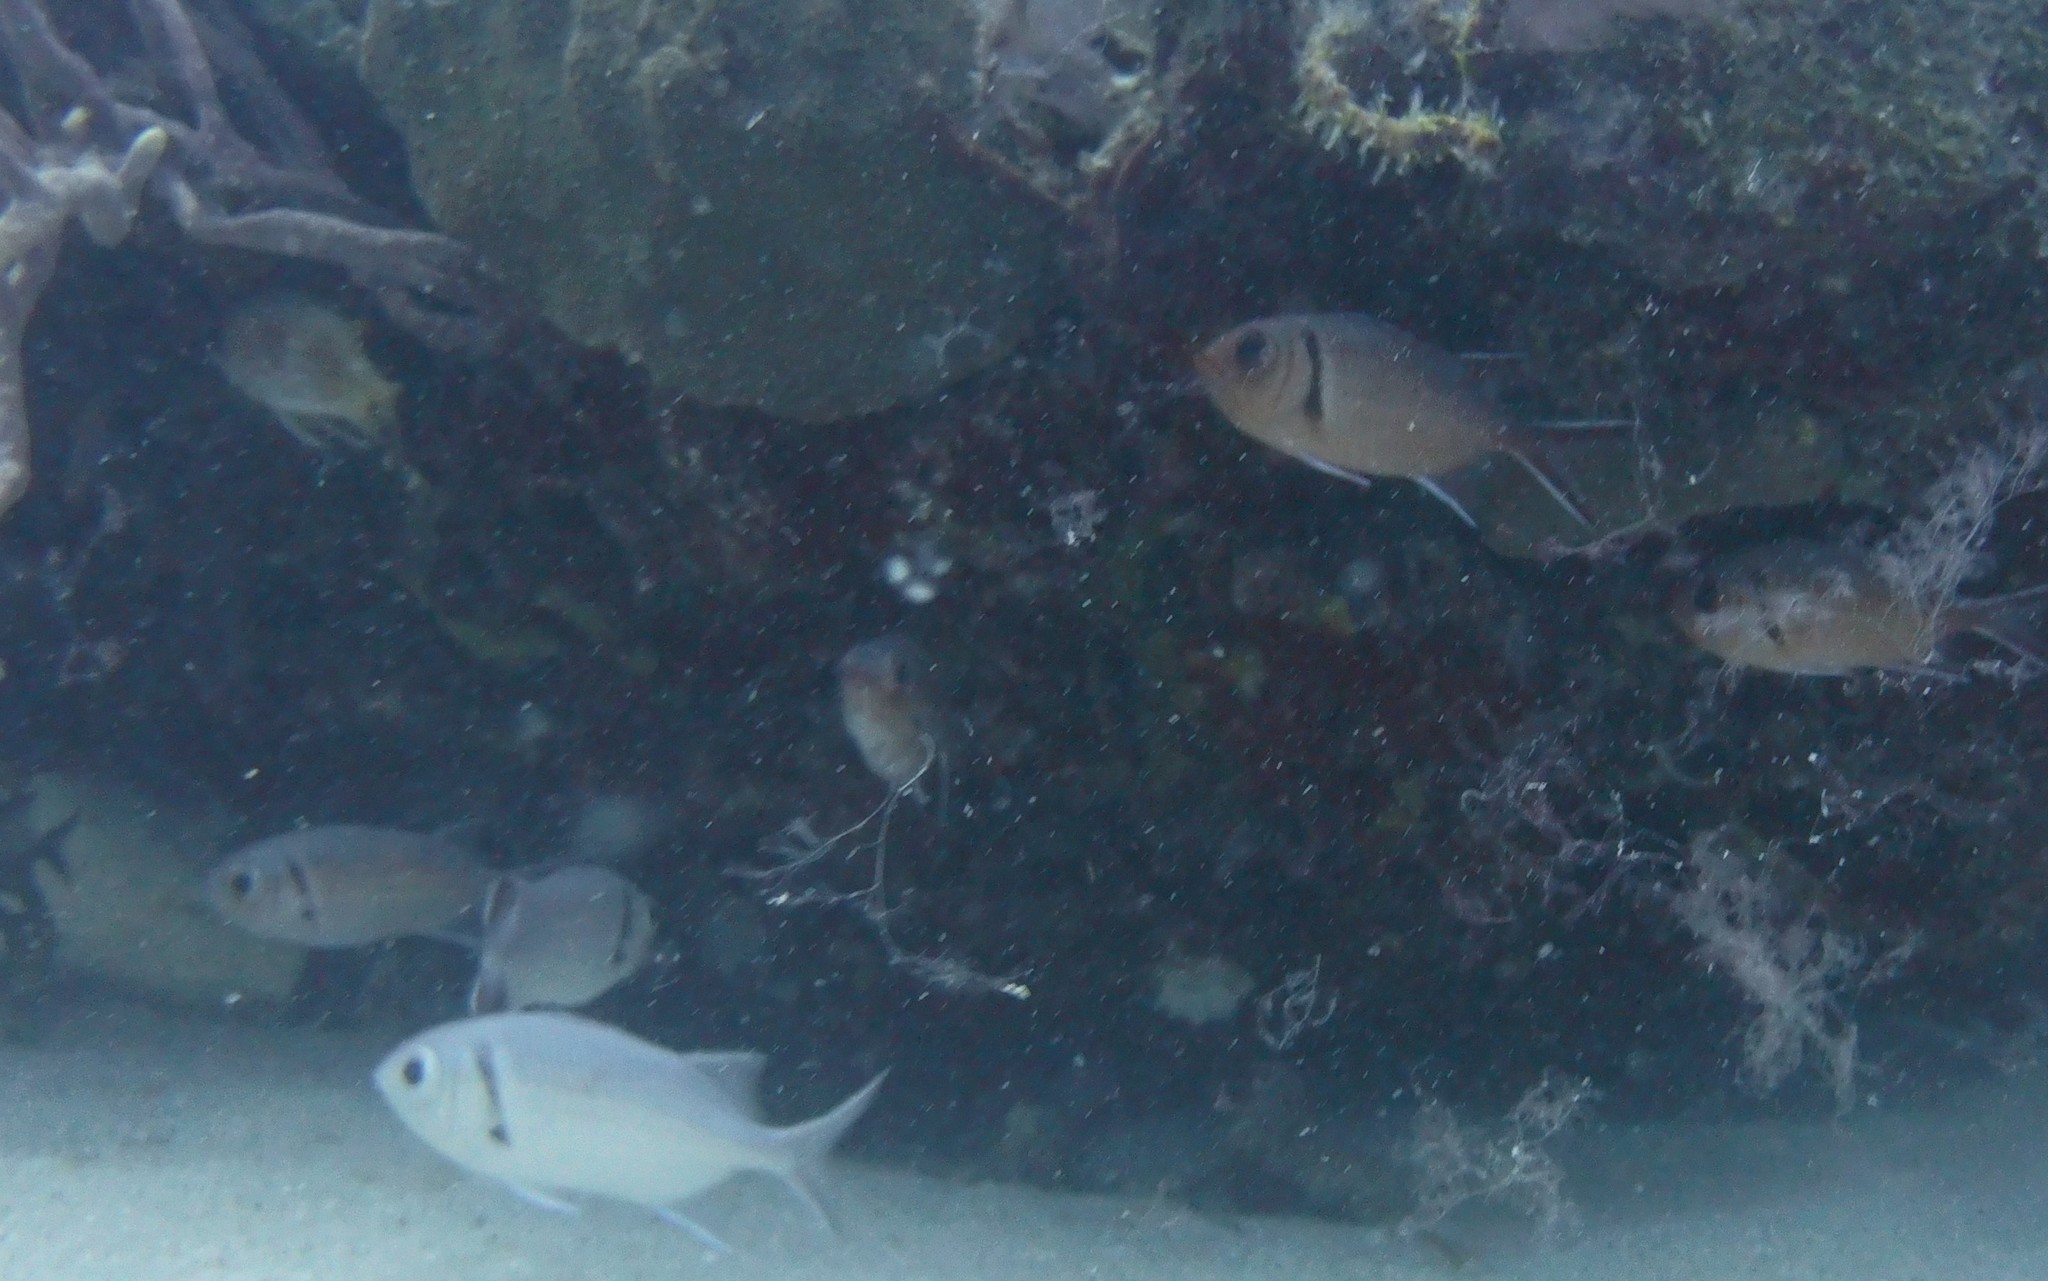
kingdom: Animalia
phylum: Chordata
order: Beryciformes
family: Holocentridae
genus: Myripristis
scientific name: Myripristis jacobus
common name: Blackbar soldierfish
